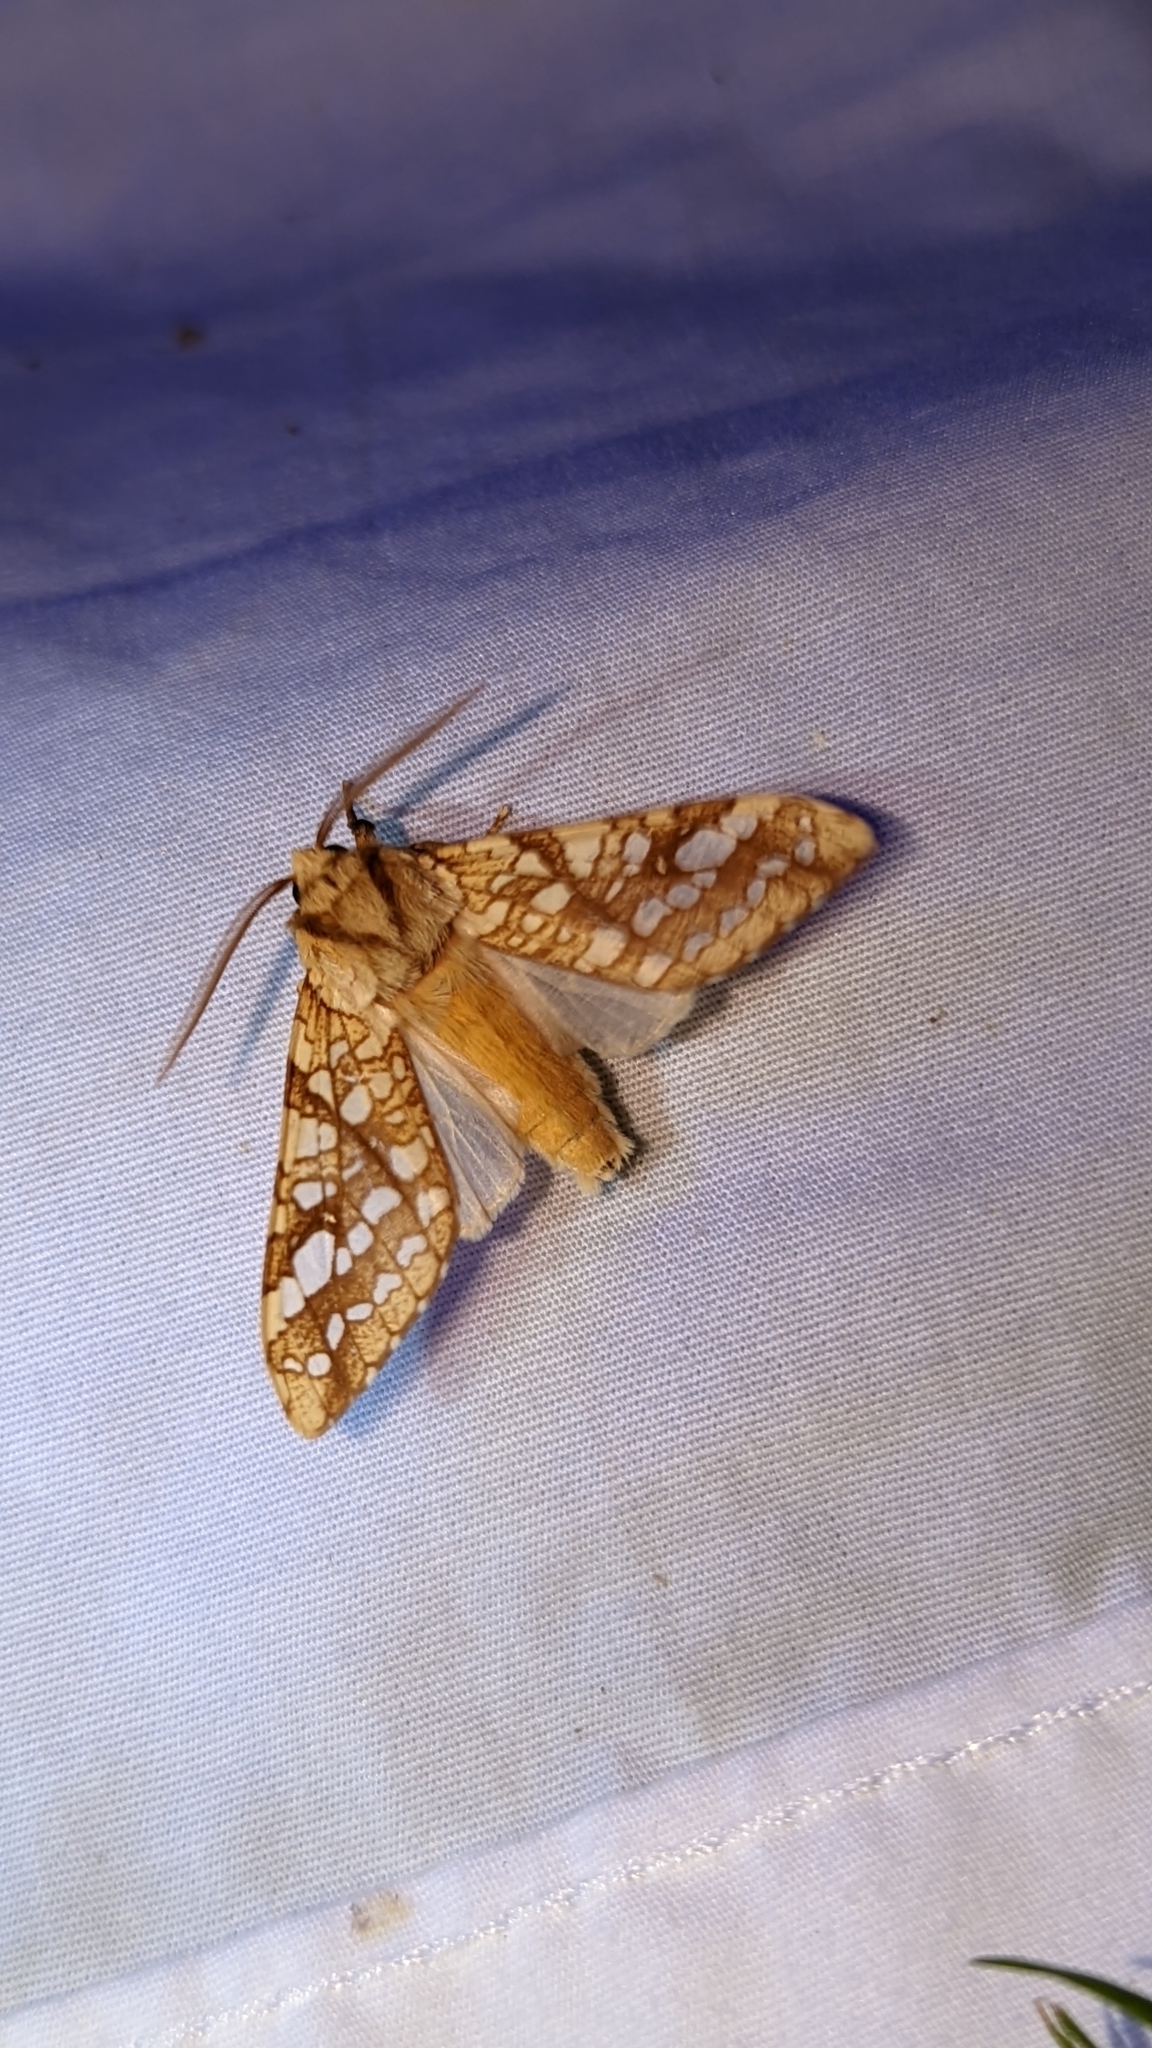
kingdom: Animalia
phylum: Arthropoda
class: Insecta
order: Lepidoptera
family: Erebidae
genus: Lophocampa
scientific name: Lophocampa caryae
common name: Hickory tussock moth
